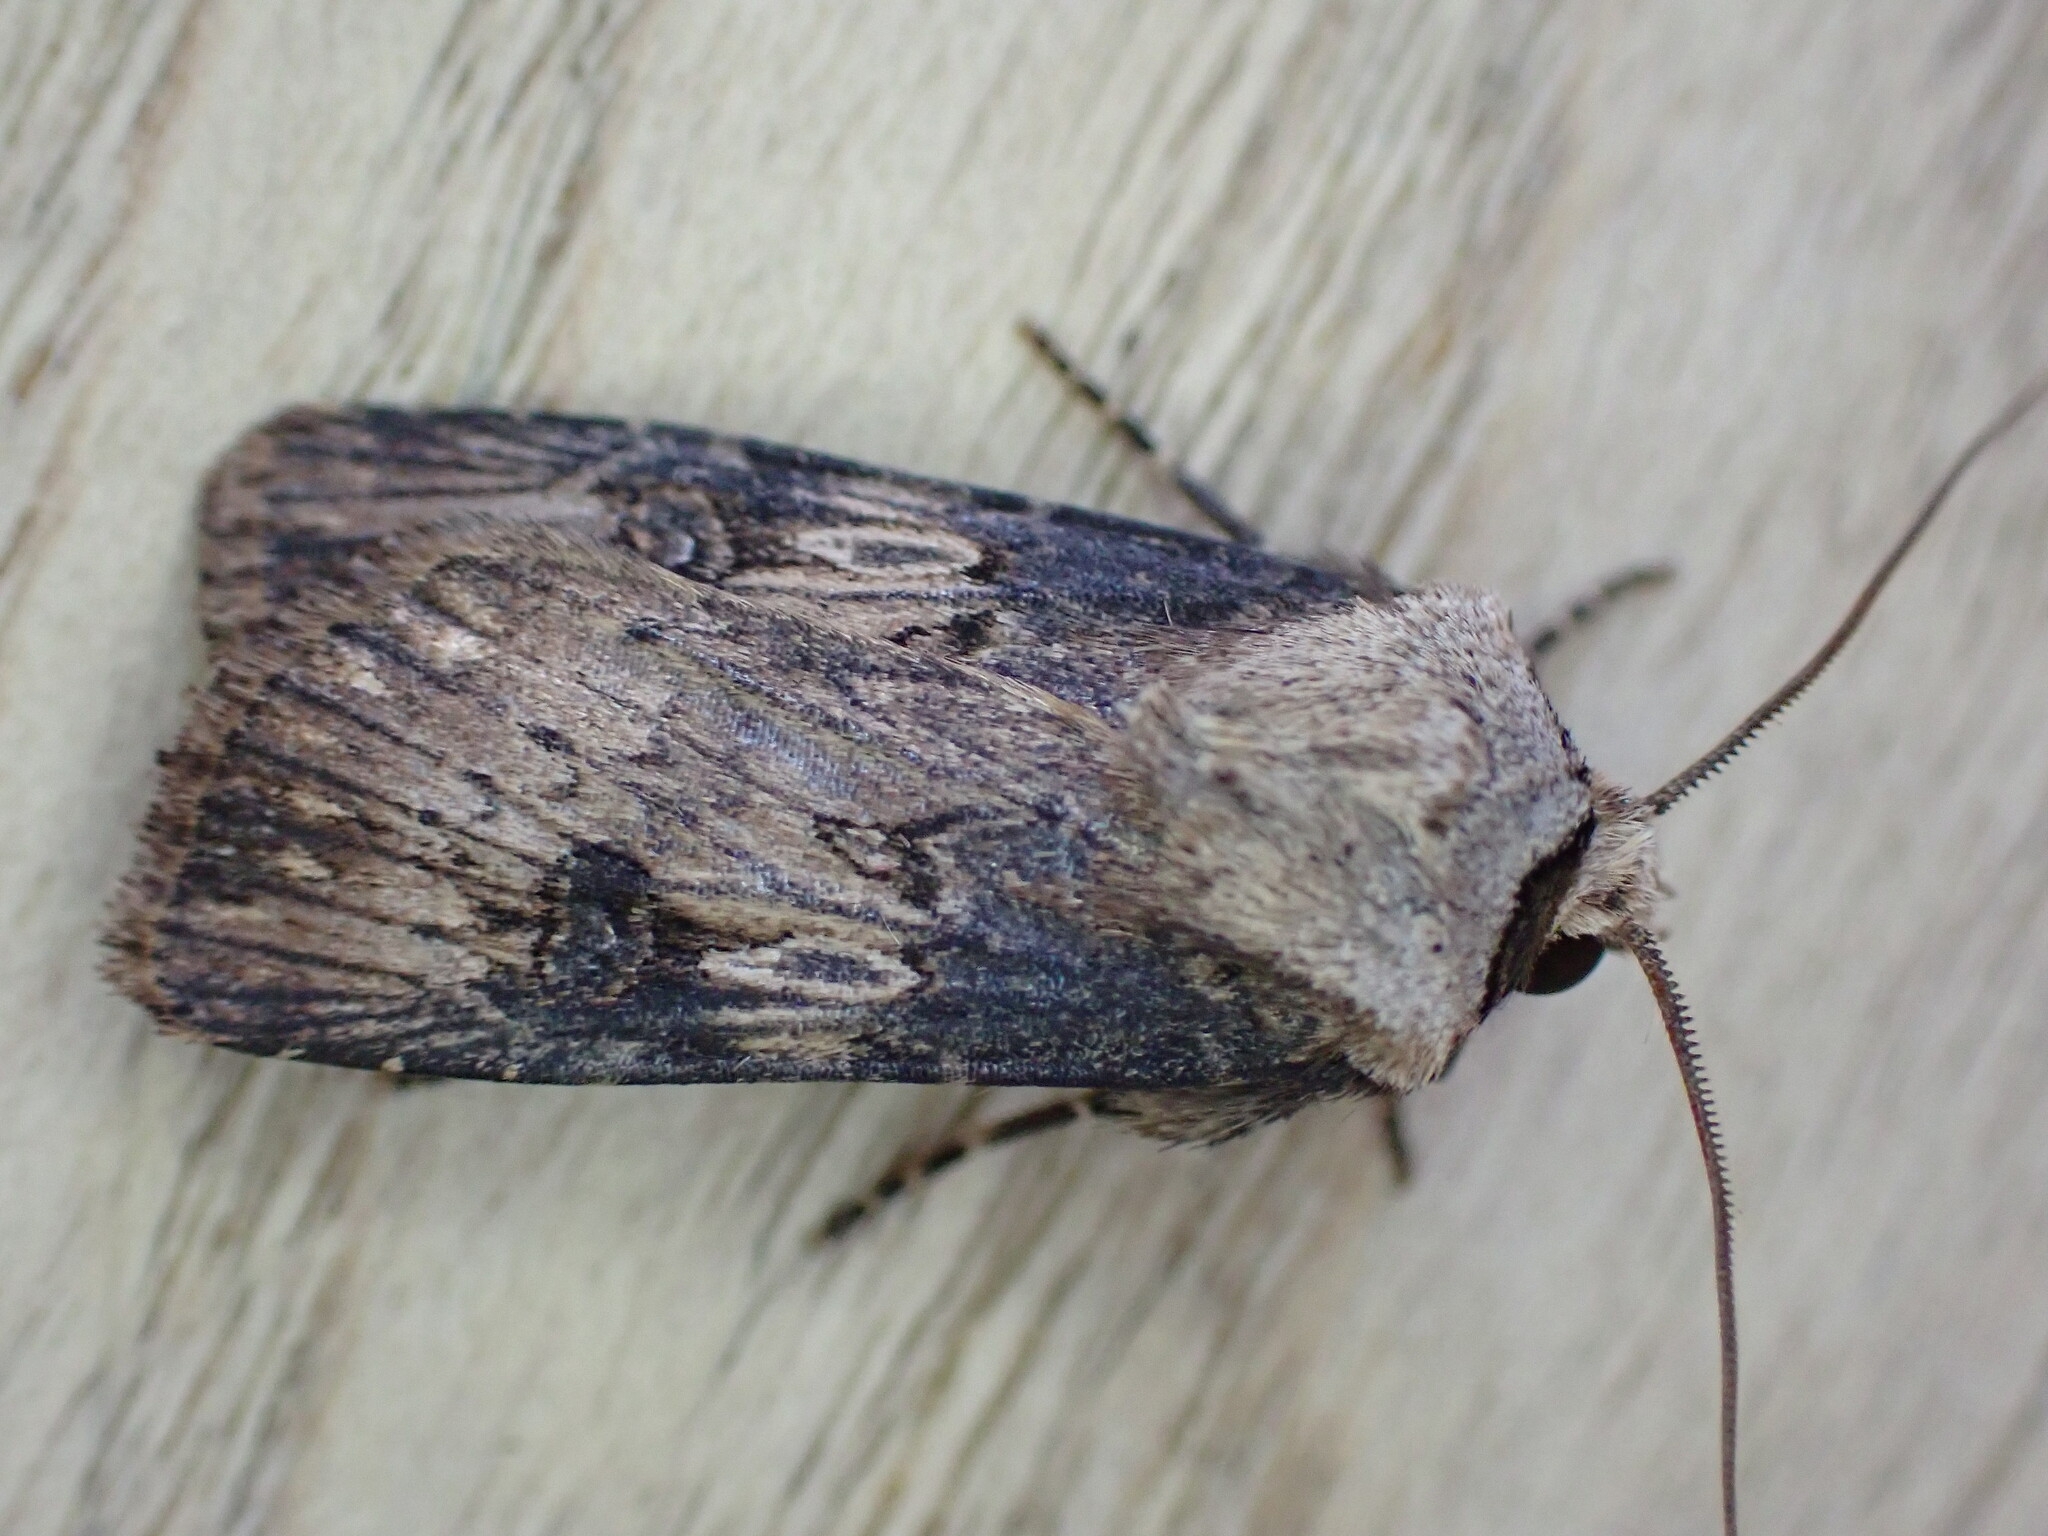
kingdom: Animalia
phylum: Arthropoda
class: Insecta
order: Lepidoptera
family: Noctuidae
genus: Agrotis
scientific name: Agrotis puta
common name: Shuttle-shaped dart
